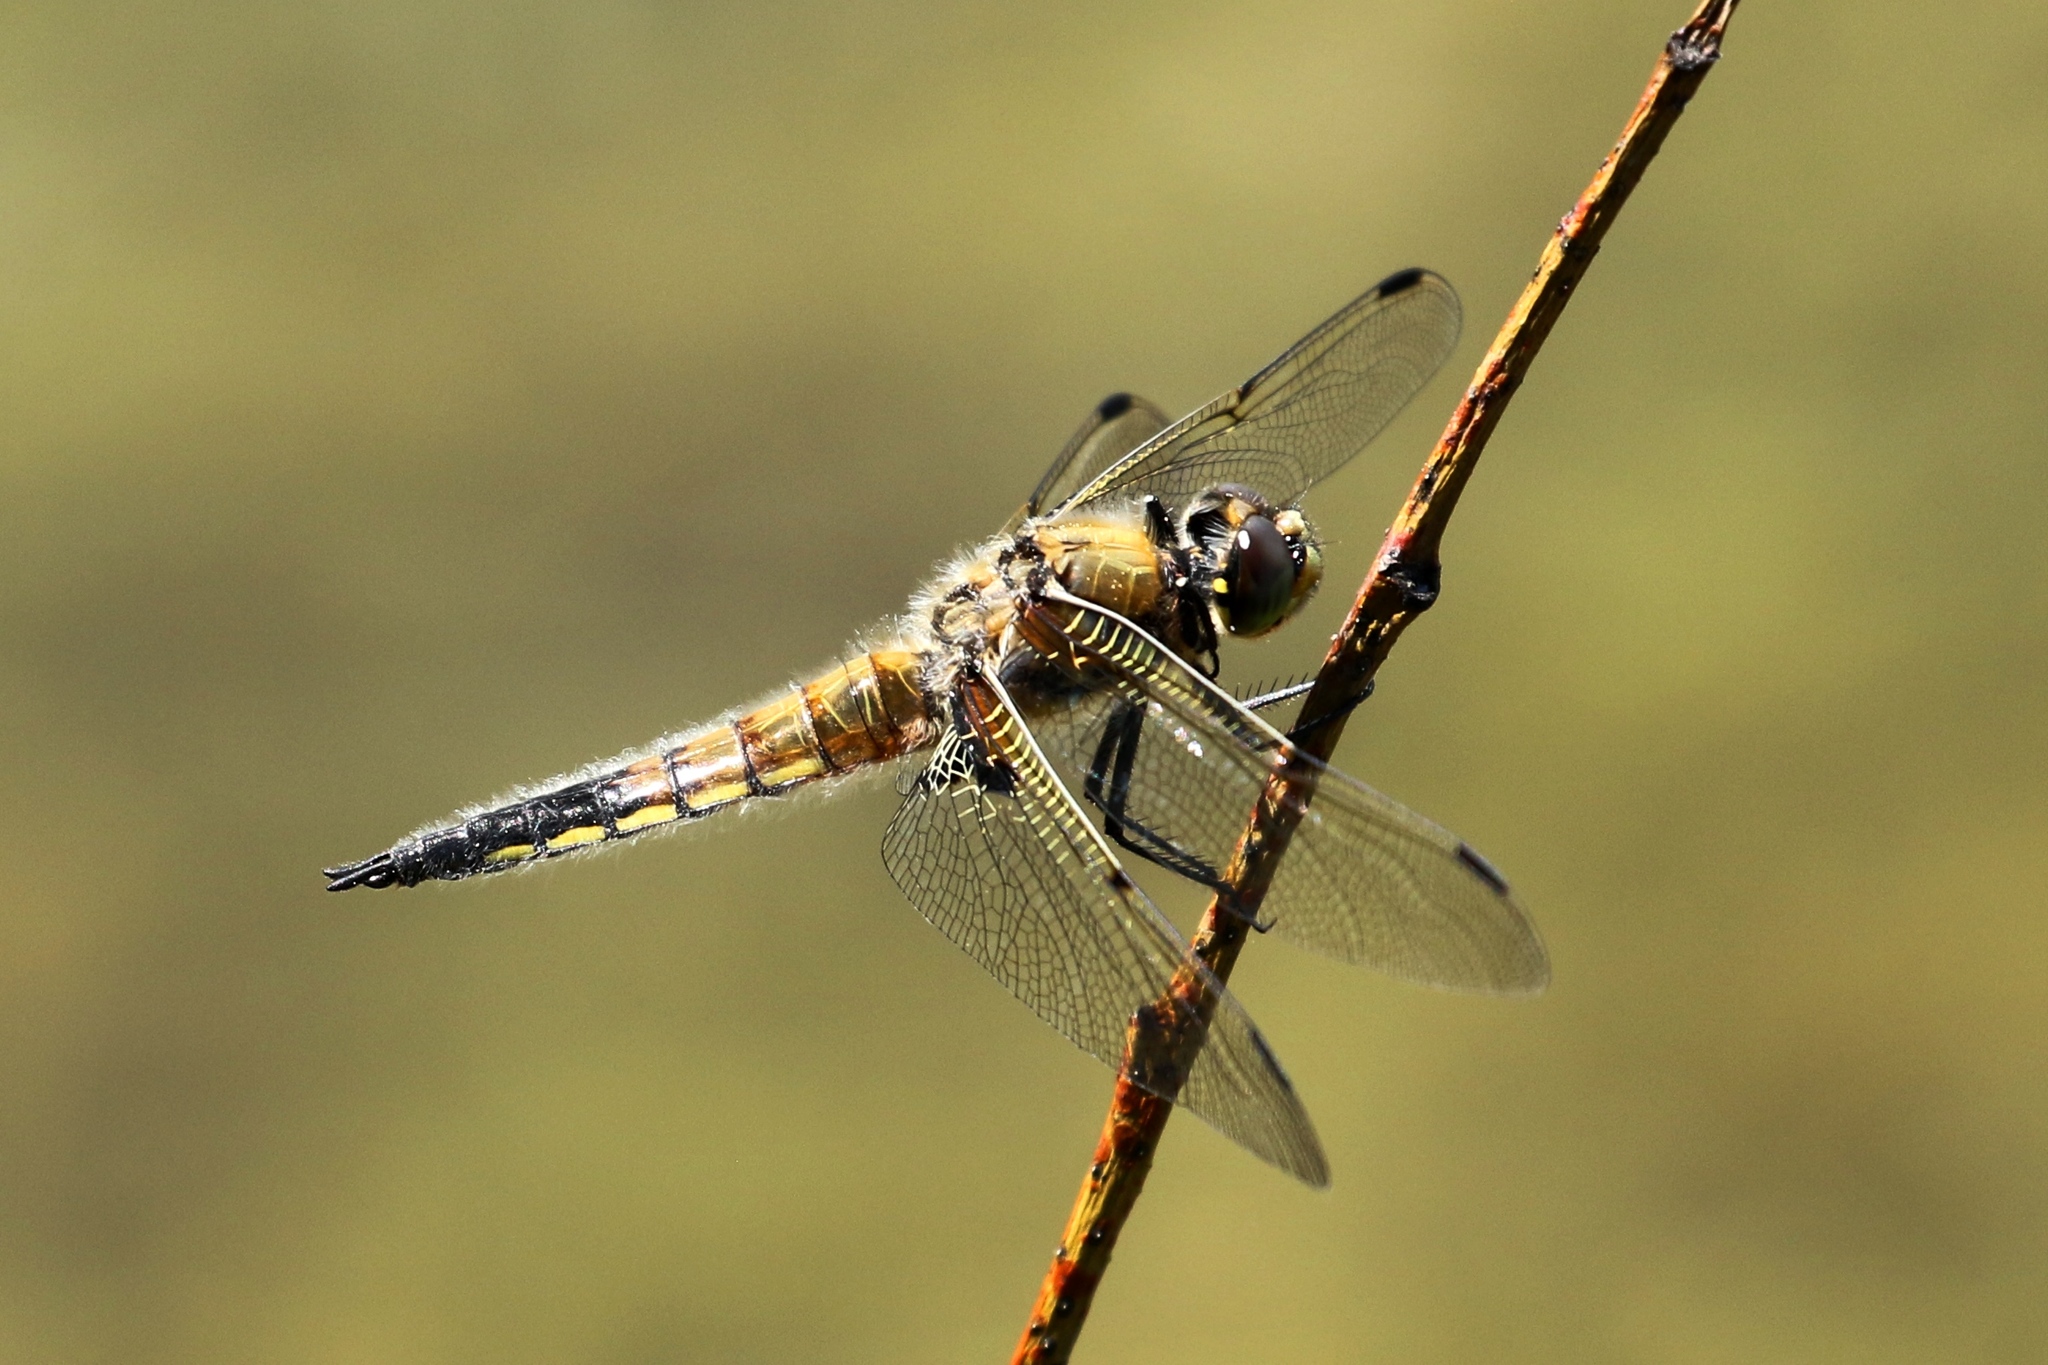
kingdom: Animalia
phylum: Arthropoda
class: Insecta
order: Odonata
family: Libellulidae
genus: Libellula
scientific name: Libellula quadrimaculata
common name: Four-spotted chaser
